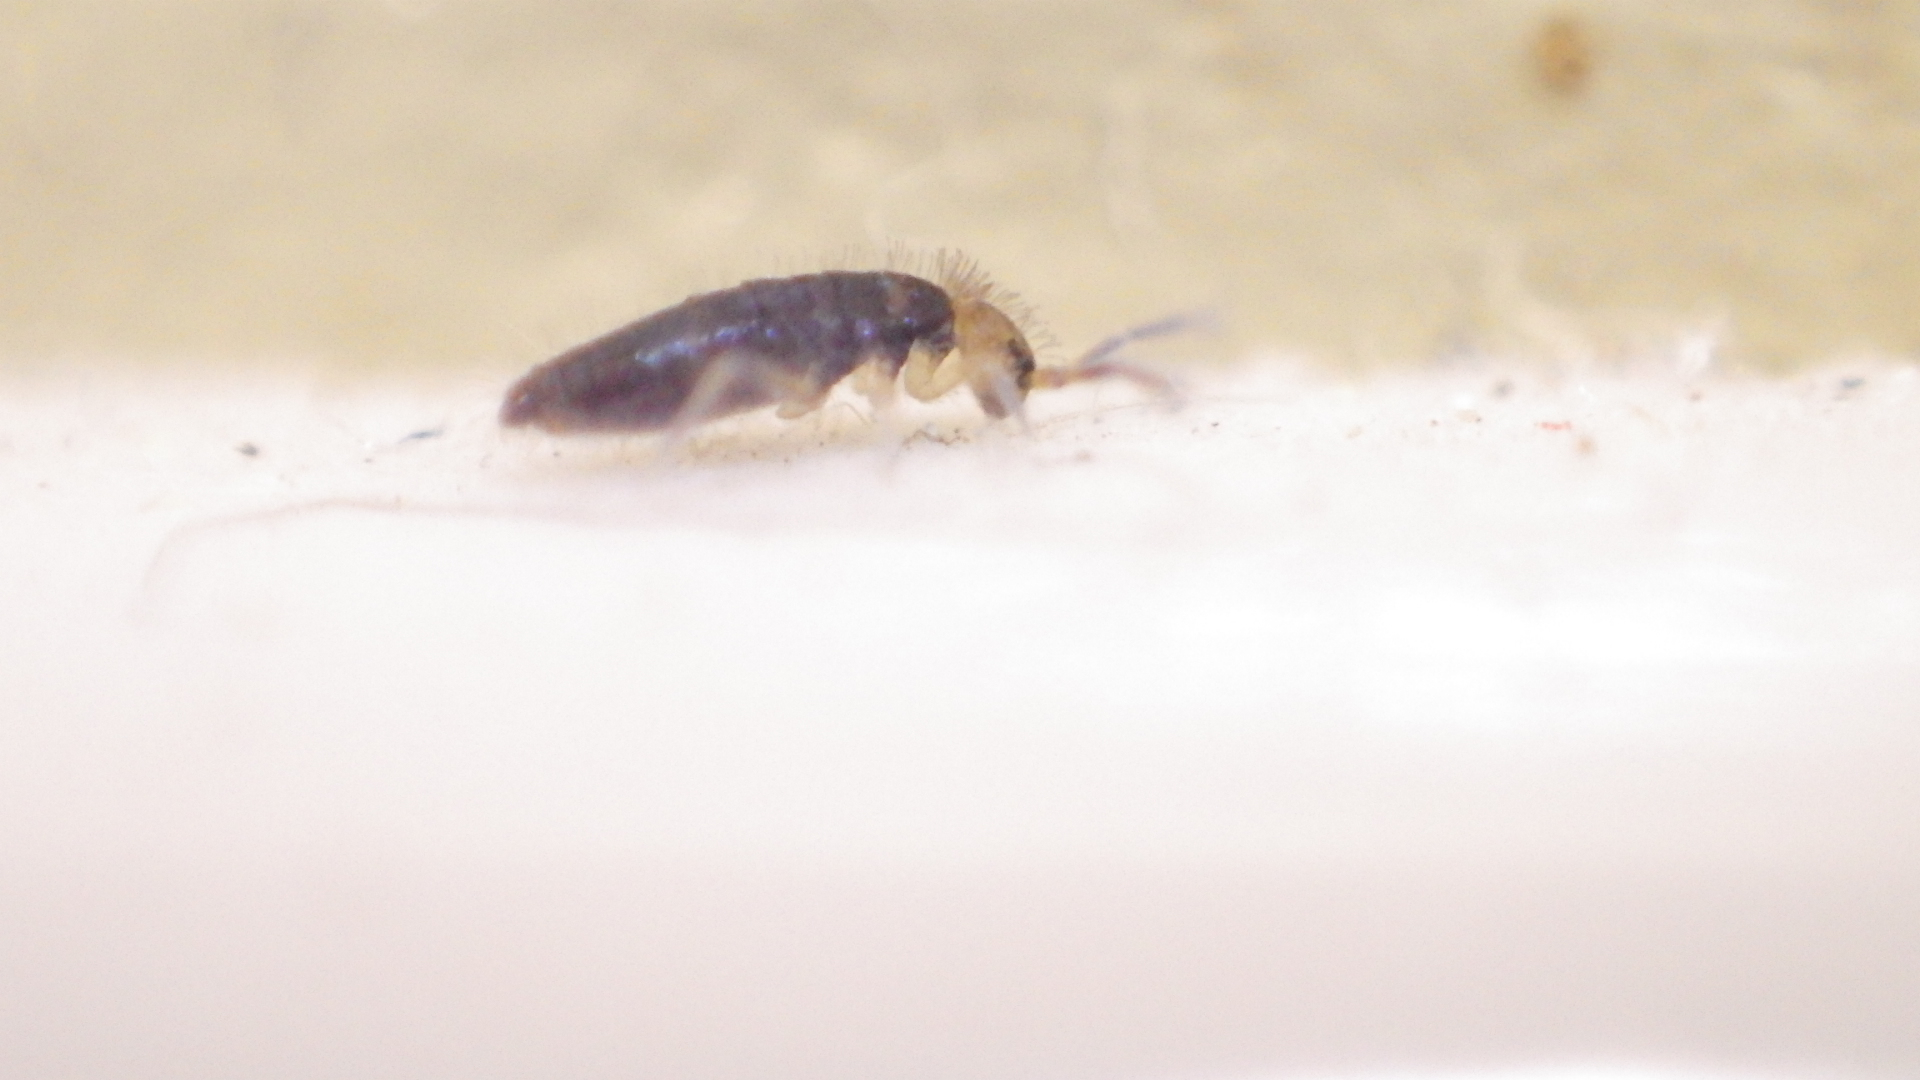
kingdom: Animalia
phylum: Arthropoda
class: Collembola
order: Entomobryomorpha
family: Entomobryidae
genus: Willowsia
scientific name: Willowsia buski
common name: Damp grain springtail
